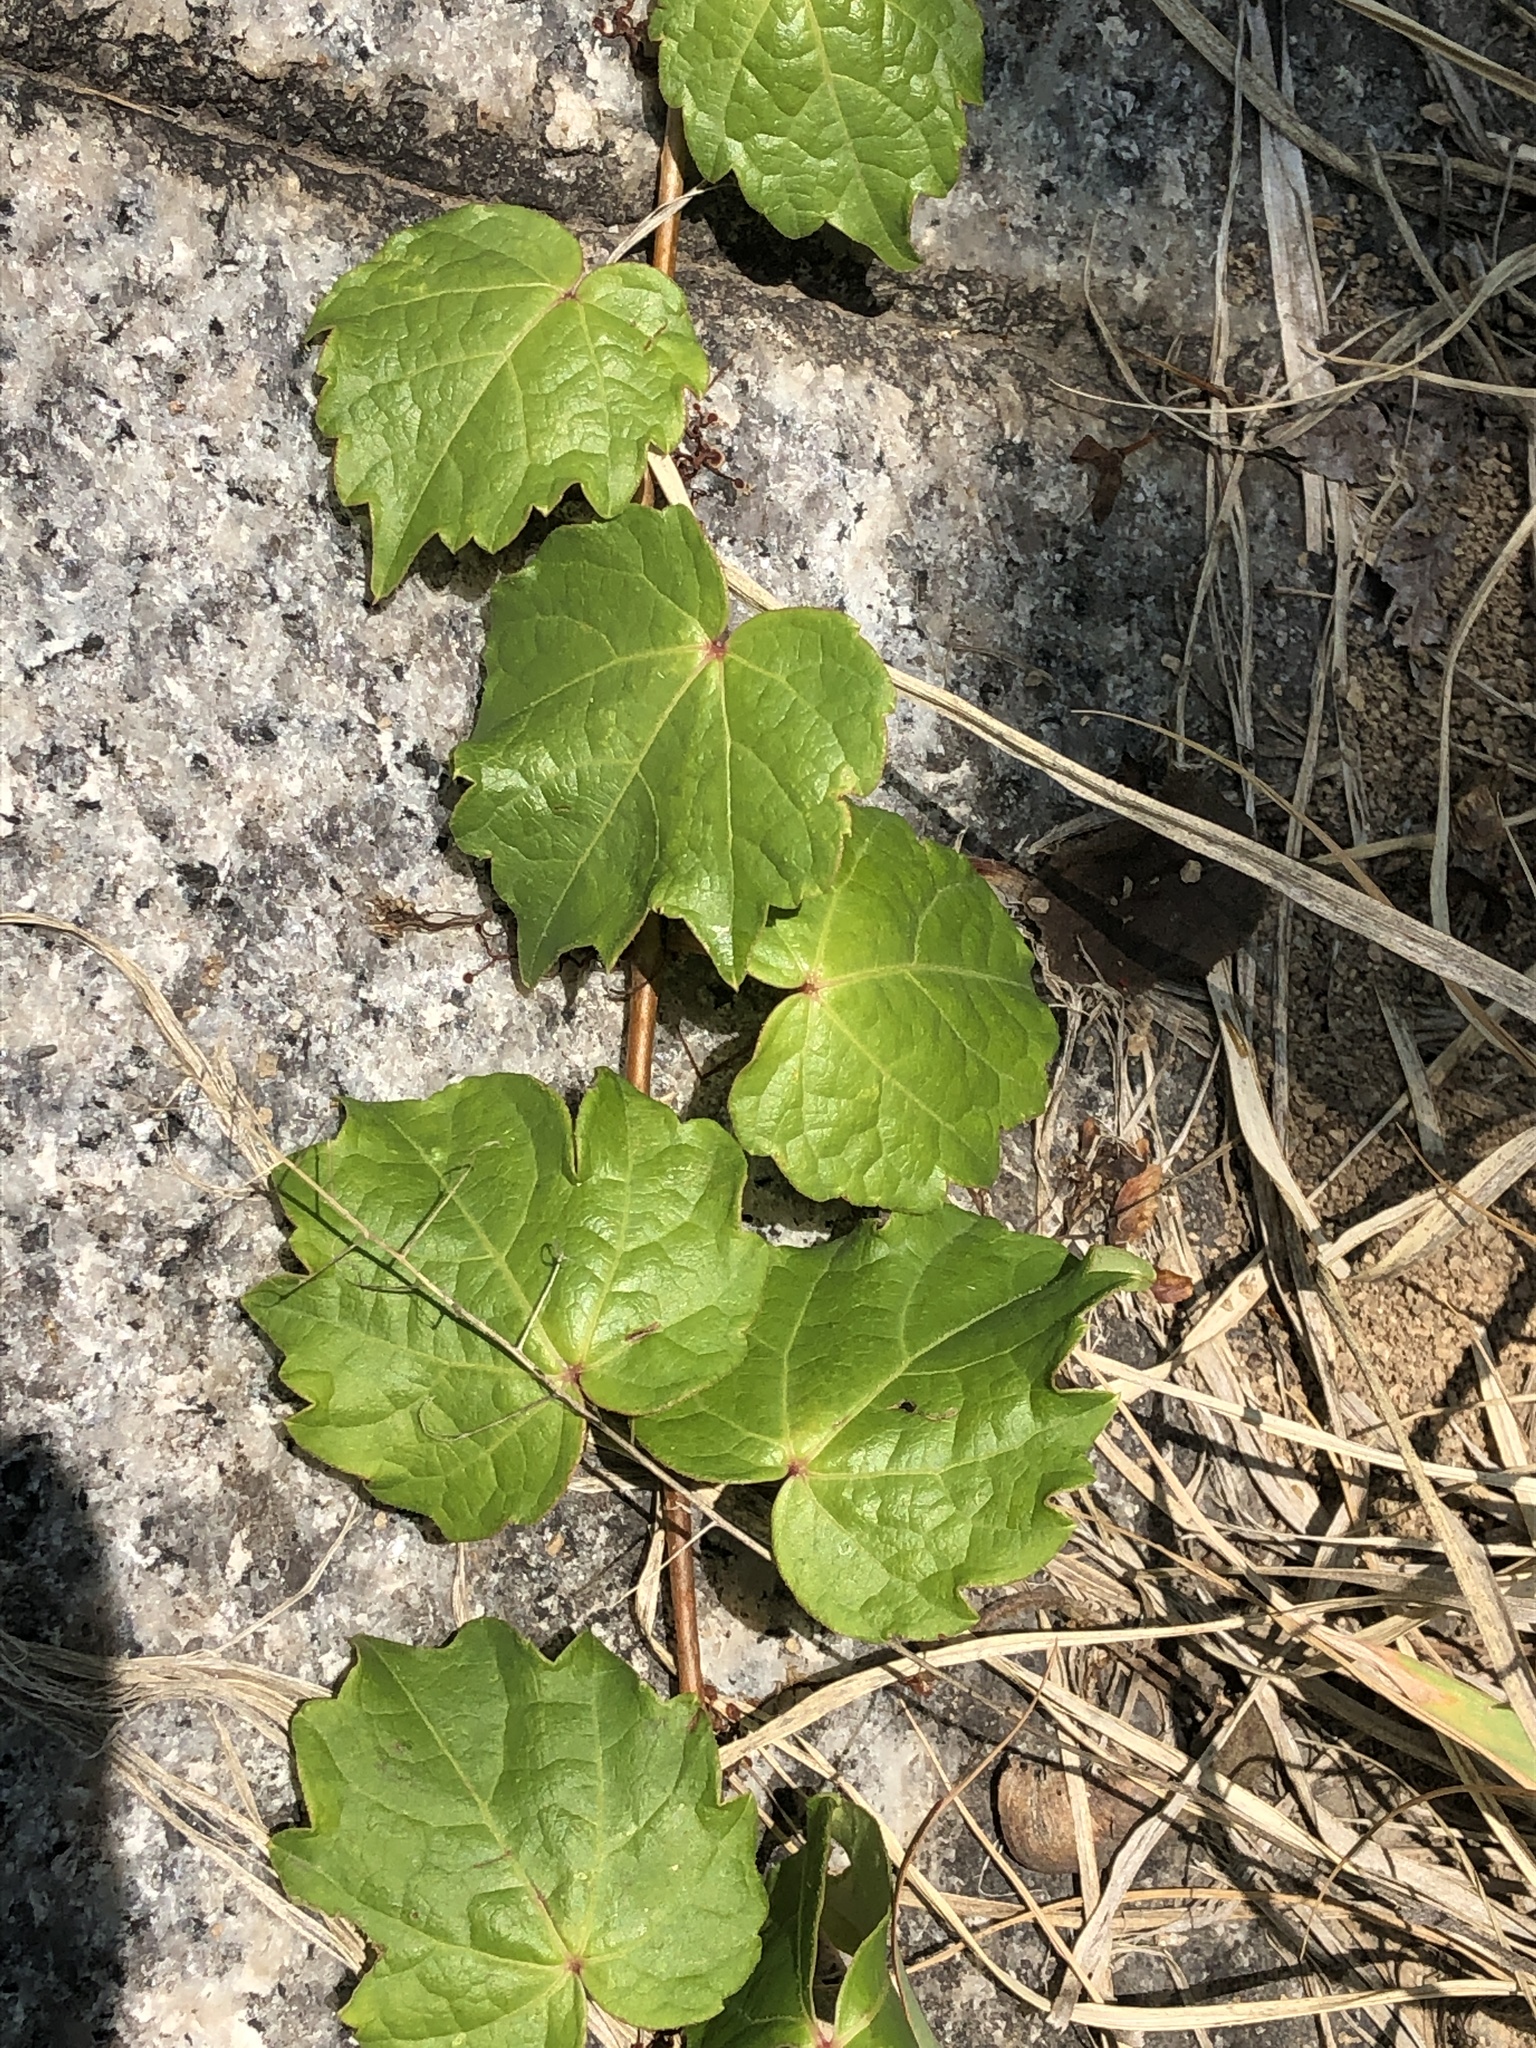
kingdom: Plantae
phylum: Tracheophyta
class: Magnoliopsida
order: Vitales
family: Vitaceae
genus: Parthenocissus
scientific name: Parthenocissus tricuspidata
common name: Boston ivy
